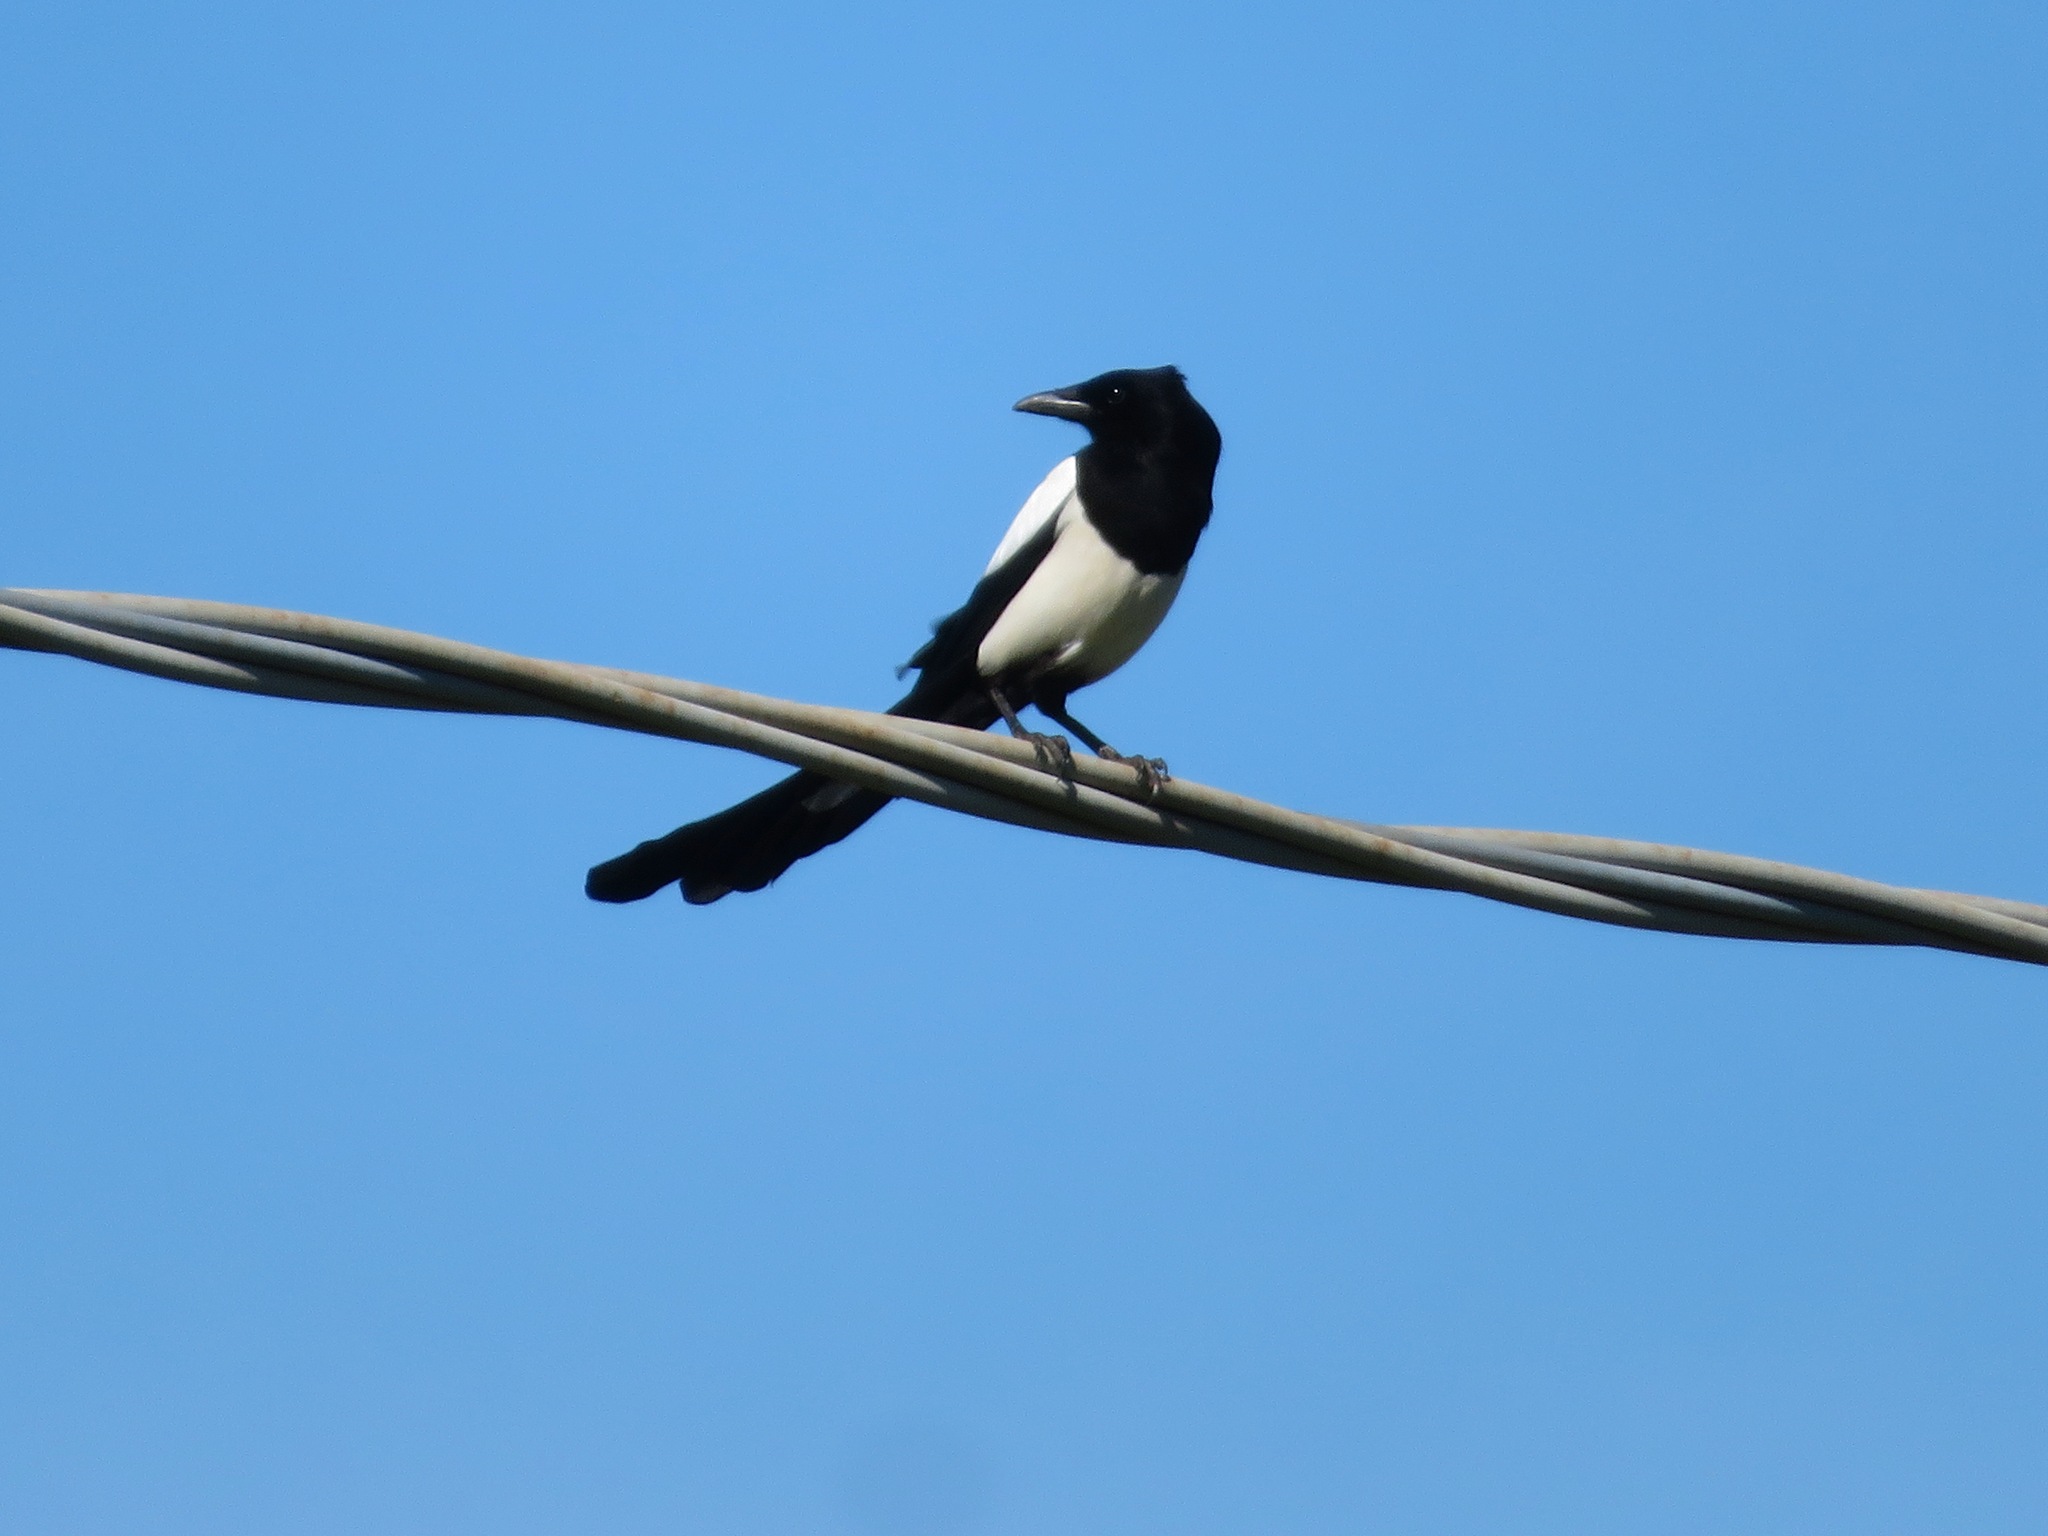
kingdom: Animalia
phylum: Chordata
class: Aves
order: Passeriformes
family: Corvidae
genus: Pica
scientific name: Pica pica
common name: Eurasian magpie
